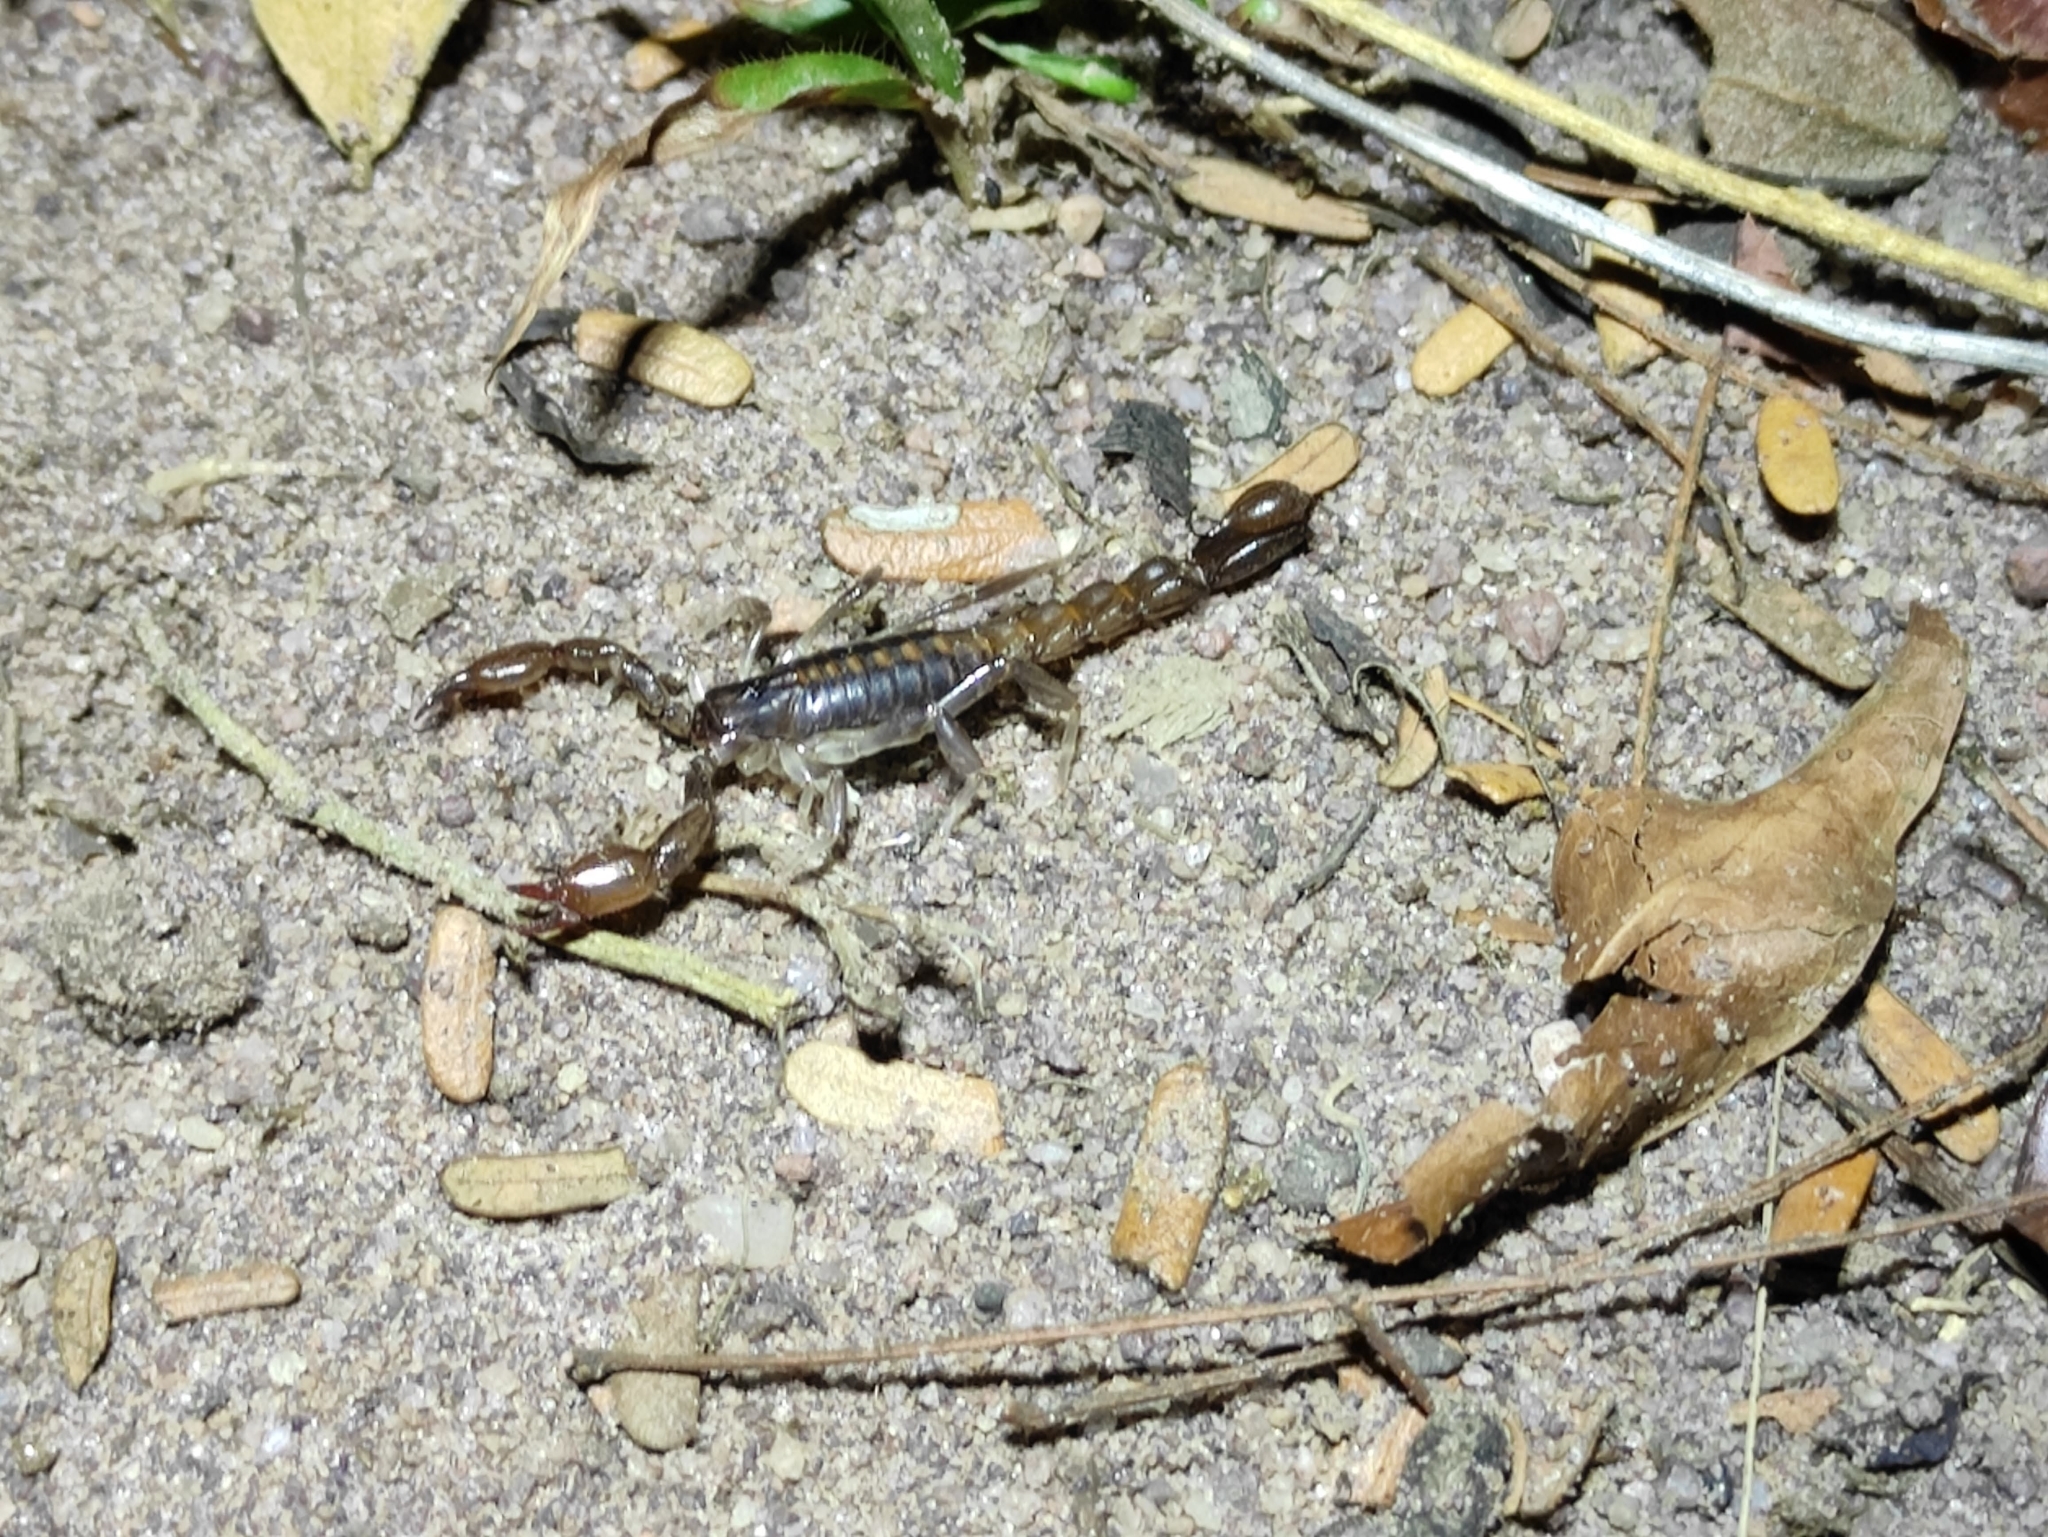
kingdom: Animalia
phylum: Arthropoda
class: Arachnida
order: Scorpiones
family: Bothriuridae
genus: Bothriurus
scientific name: Bothriurus asper
